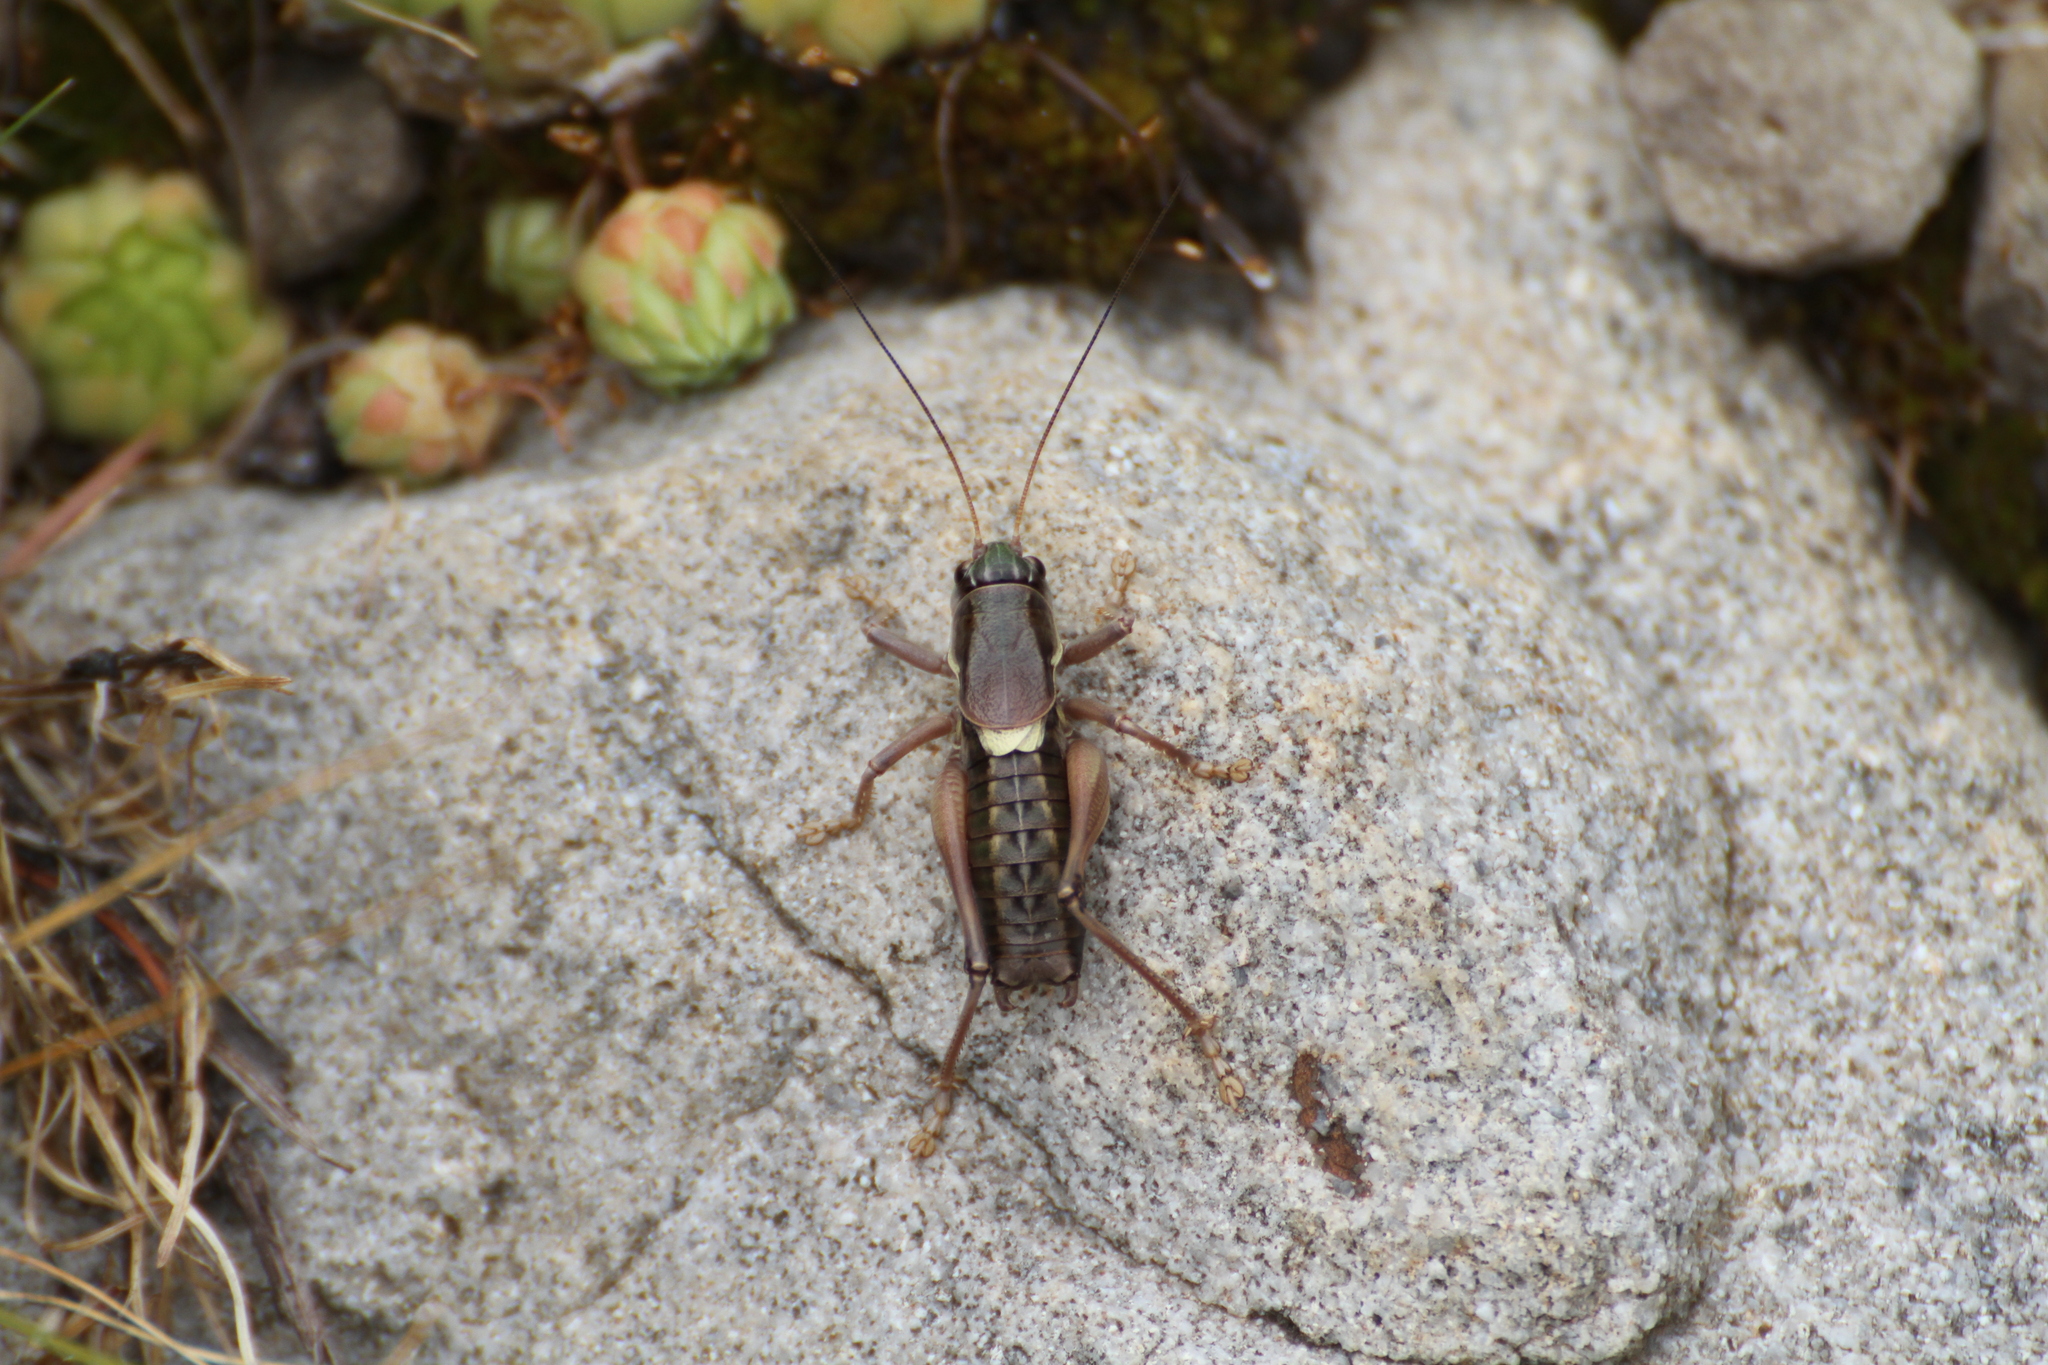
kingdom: Animalia
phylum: Arthropoda
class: Insecta
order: Orthoptera
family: Tettigoniidae
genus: Anonconotus
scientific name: Anonconotus ghilianii
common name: Ghiliani's alpine bush-cricket
